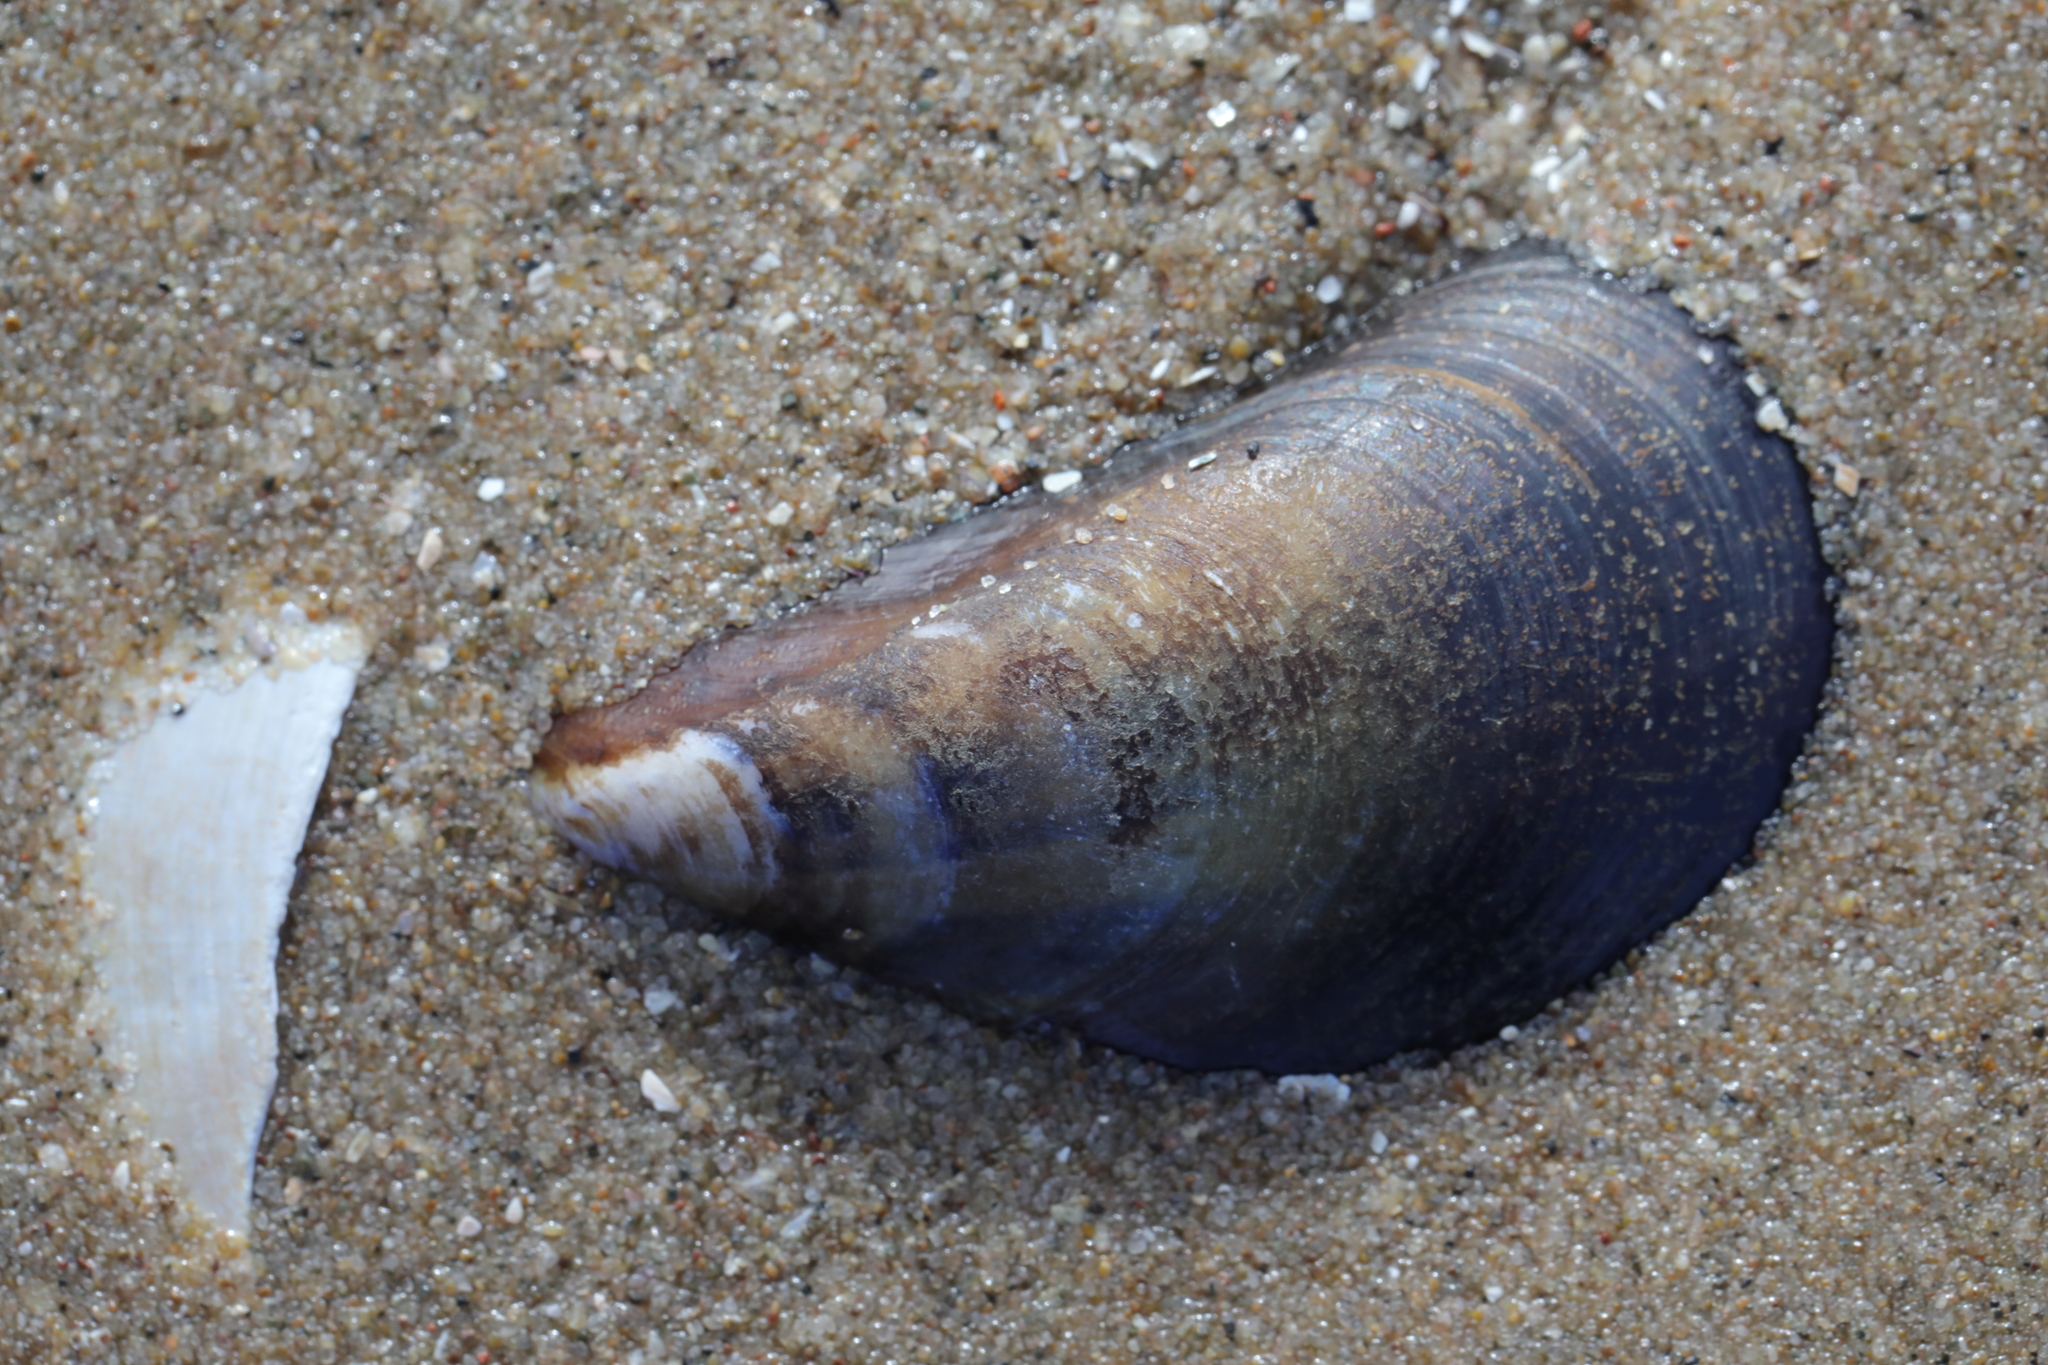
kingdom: Animalia
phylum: Mollusca
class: Bivalvia
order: Mytilida
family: Mytilidae
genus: Mytilus
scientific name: Mytilus edulis
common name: Blue mussel
